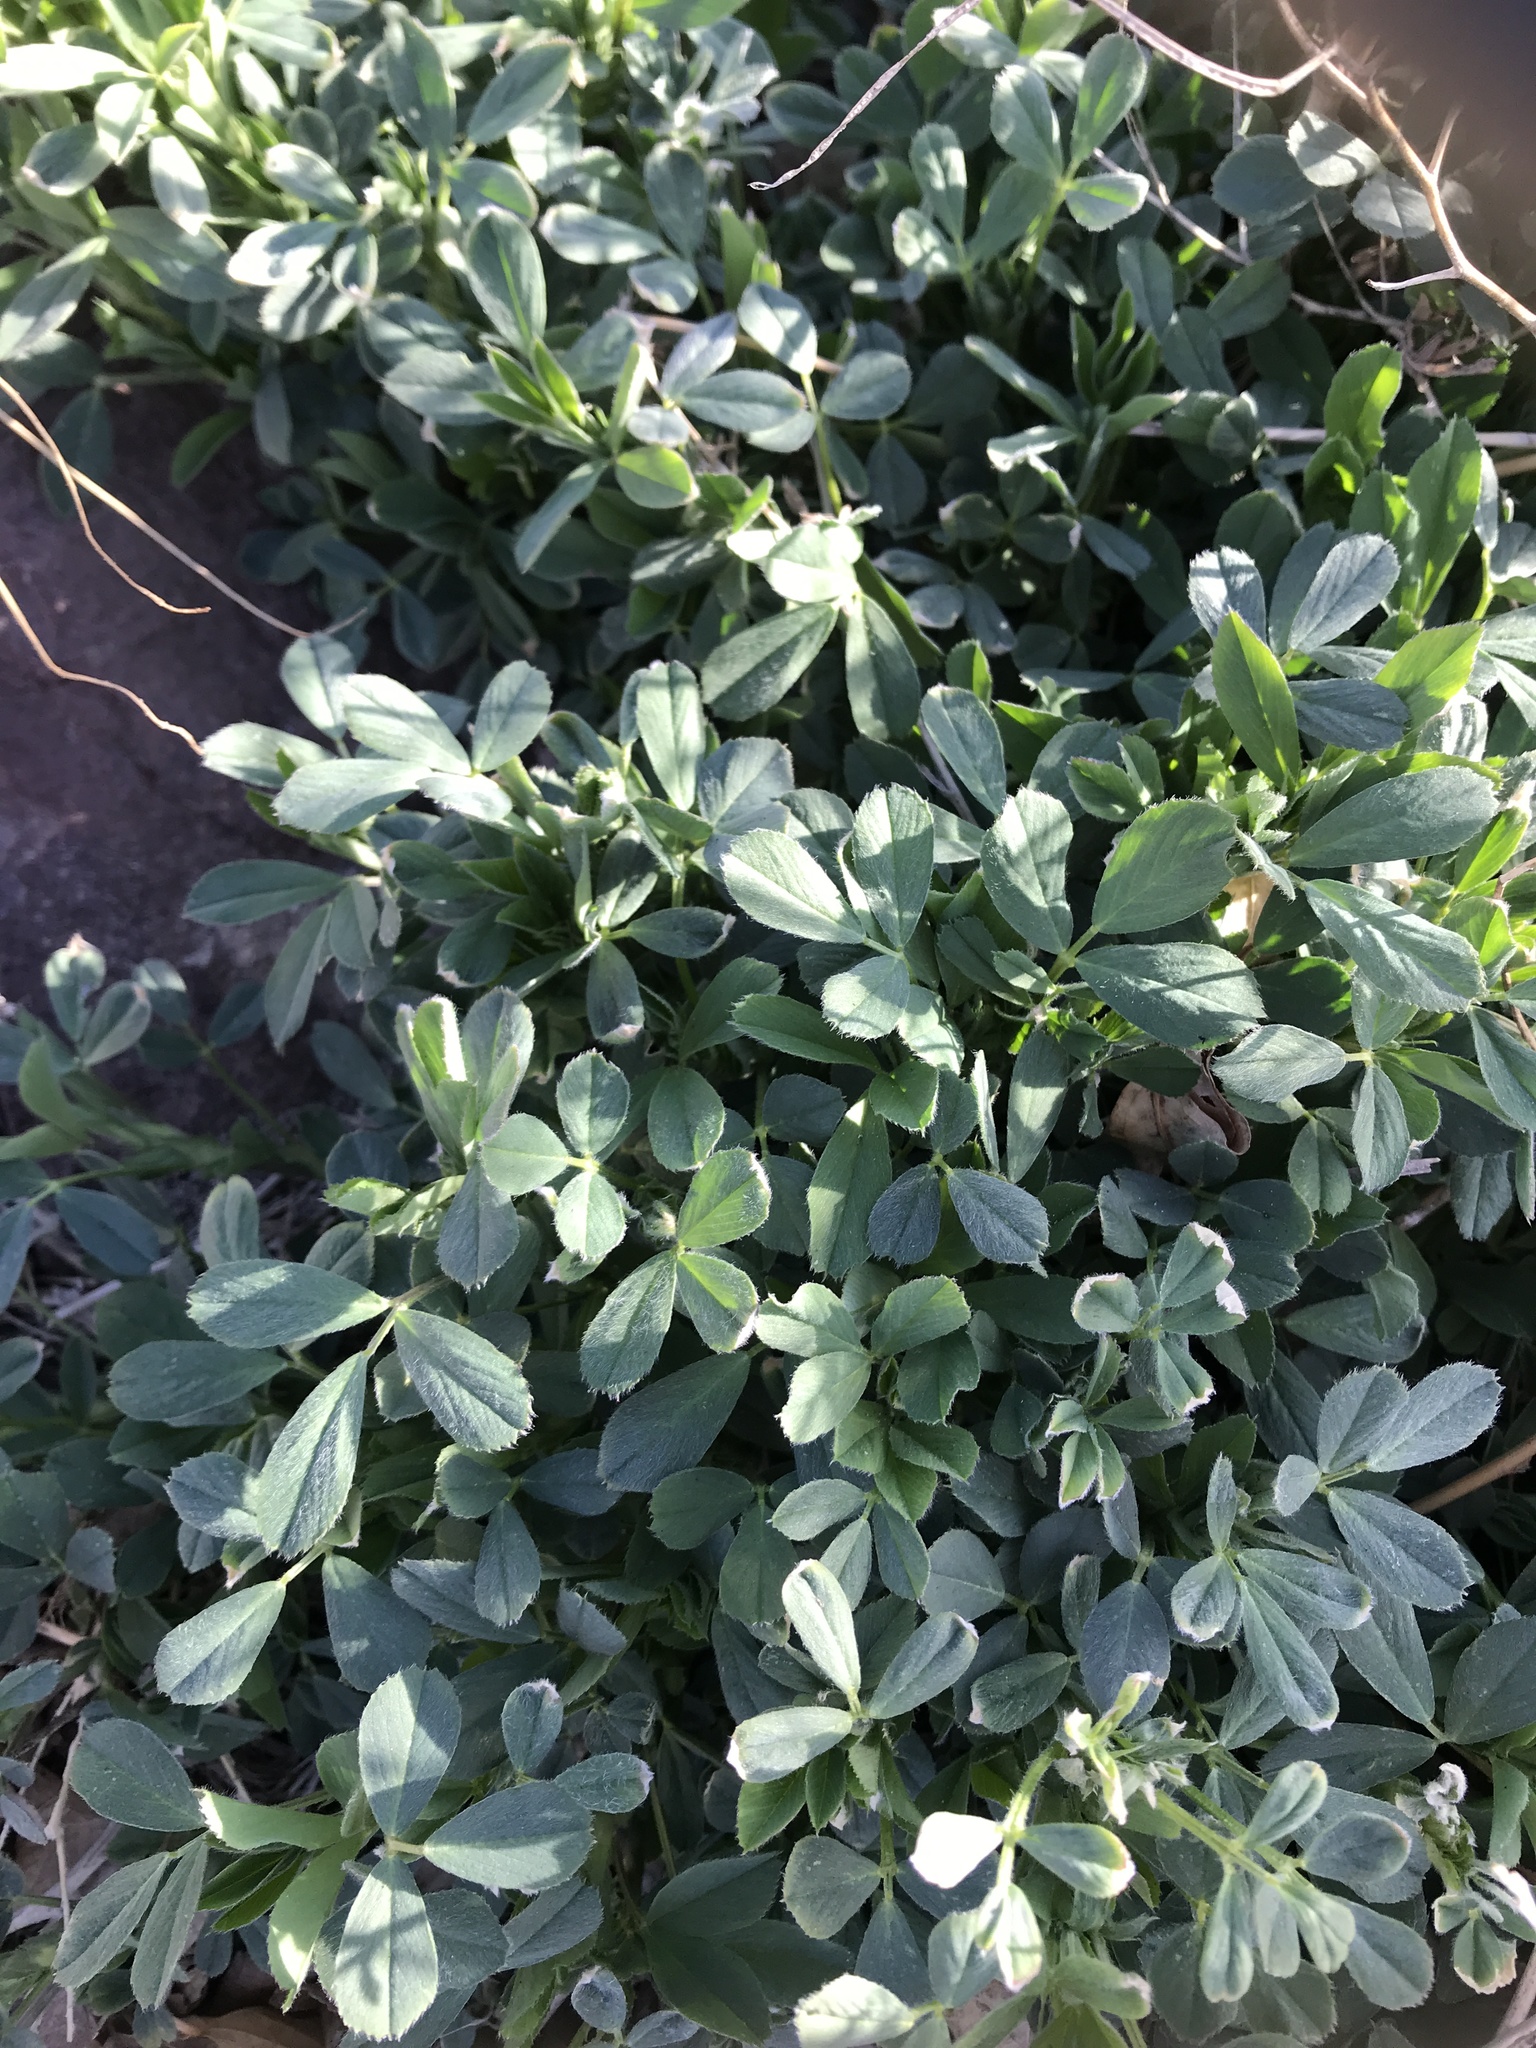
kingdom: Plantae
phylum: Tracheophyta
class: Magnoliopsida
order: Fabales
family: Fabaceae
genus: Medicago
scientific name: Medicago sativa
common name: Alfalfa
